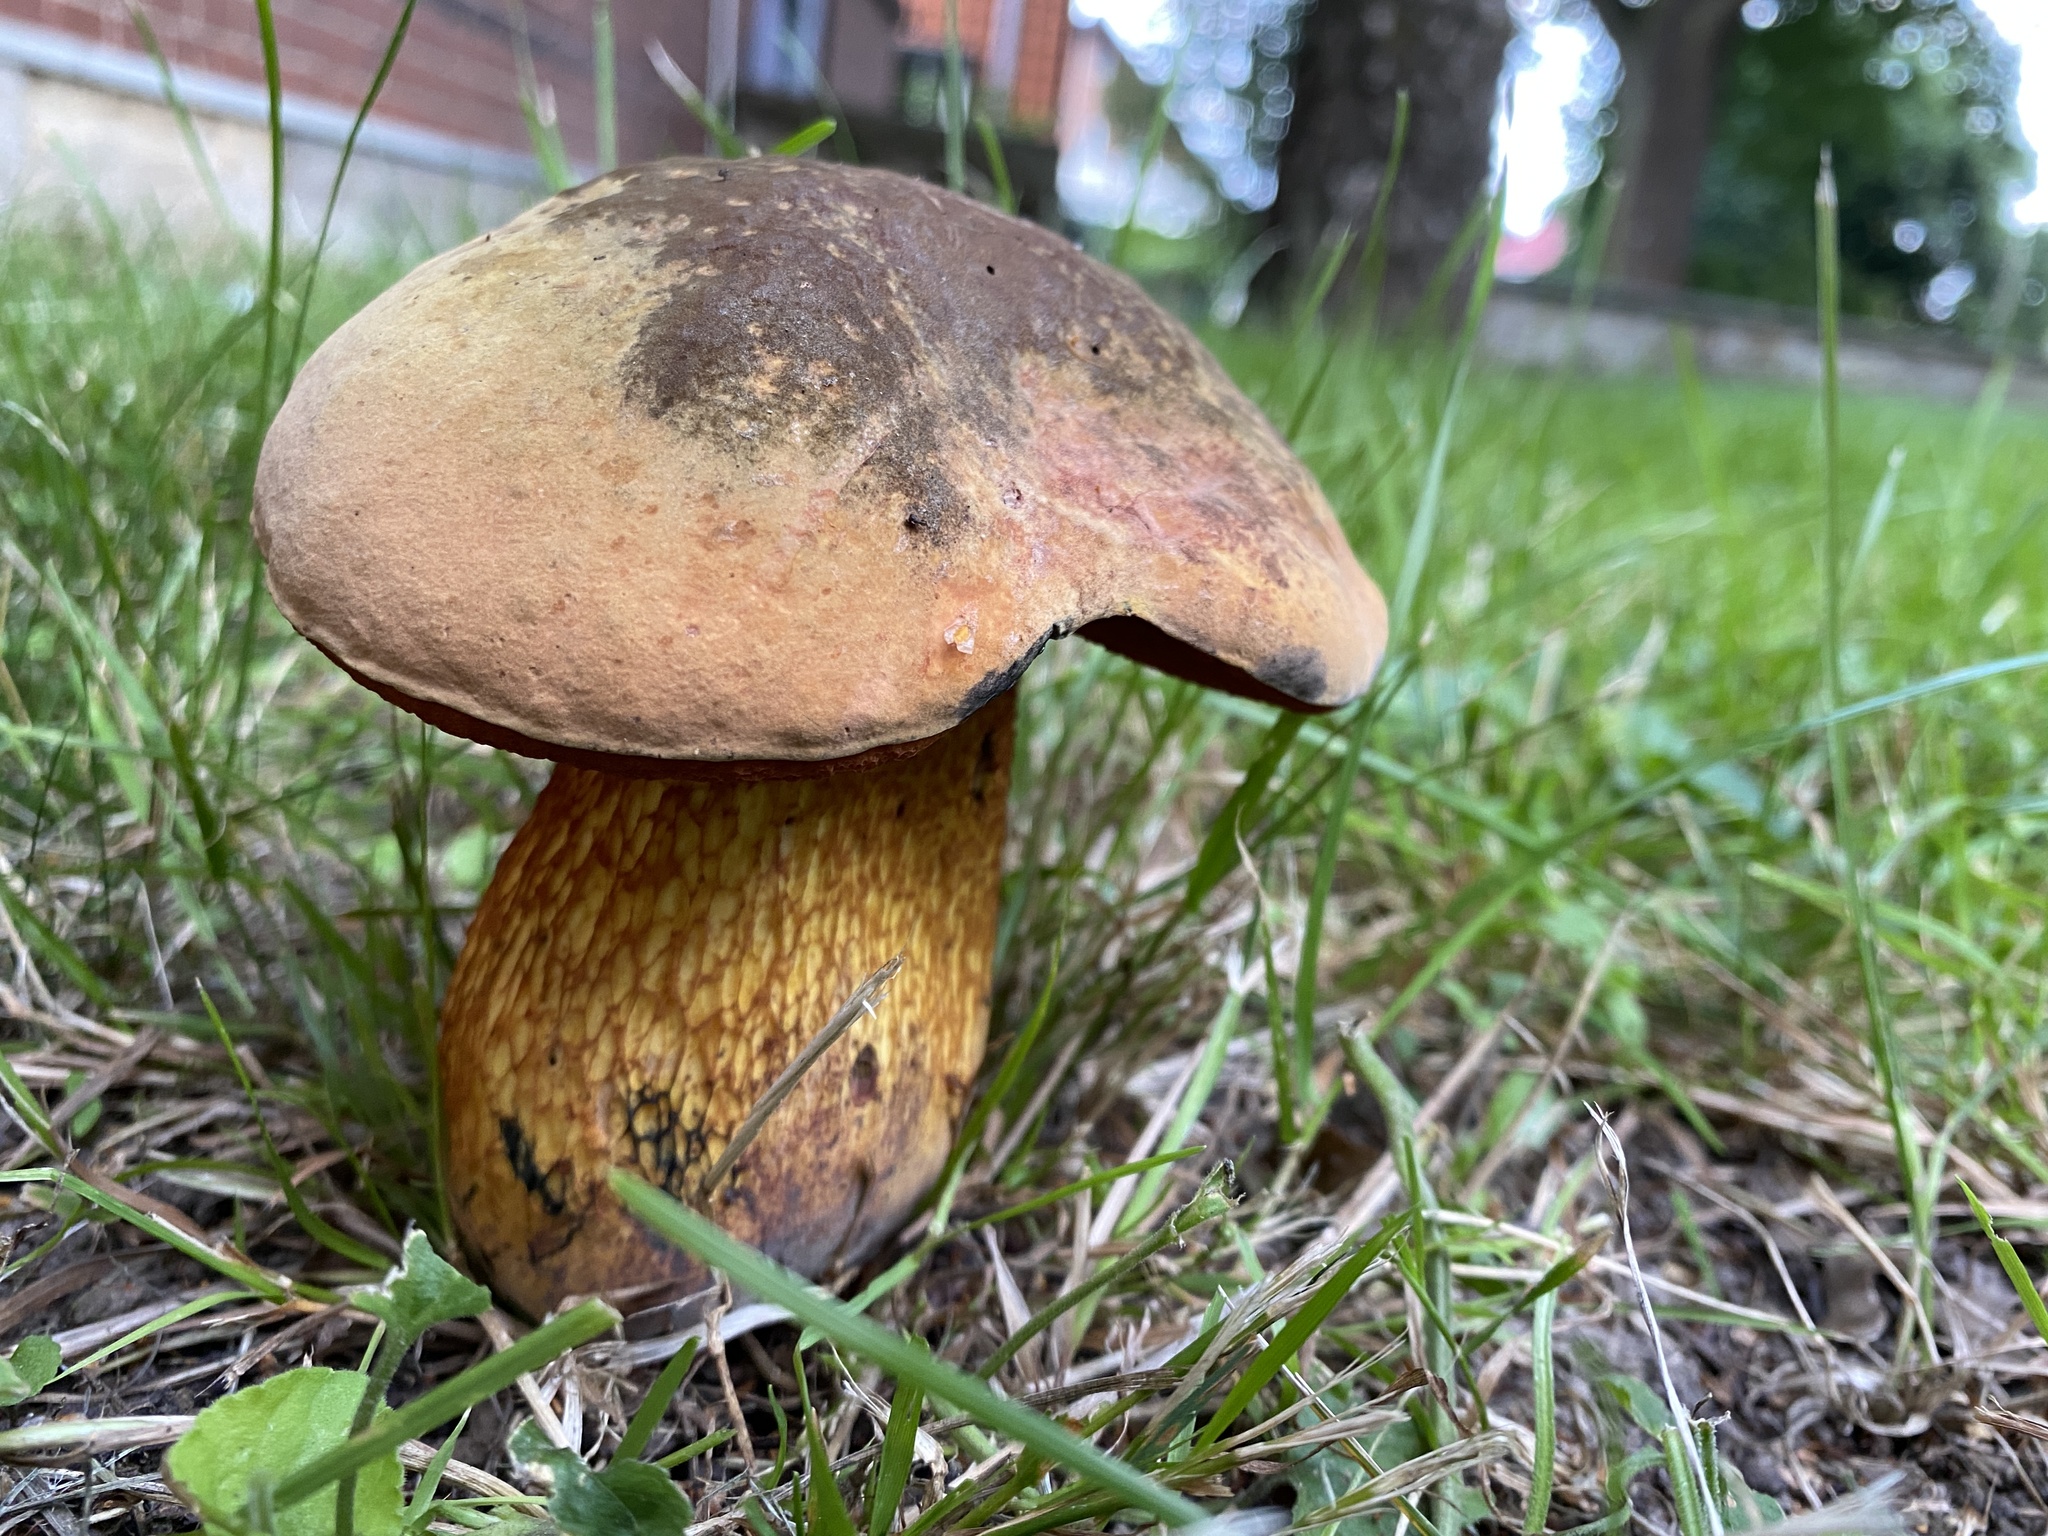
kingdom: Fungi
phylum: Basidiomycota
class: Agaricomycetes
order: Boletales
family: Boletaceae
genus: Suillellus
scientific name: Suillellus luridus
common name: Lurid bolete
